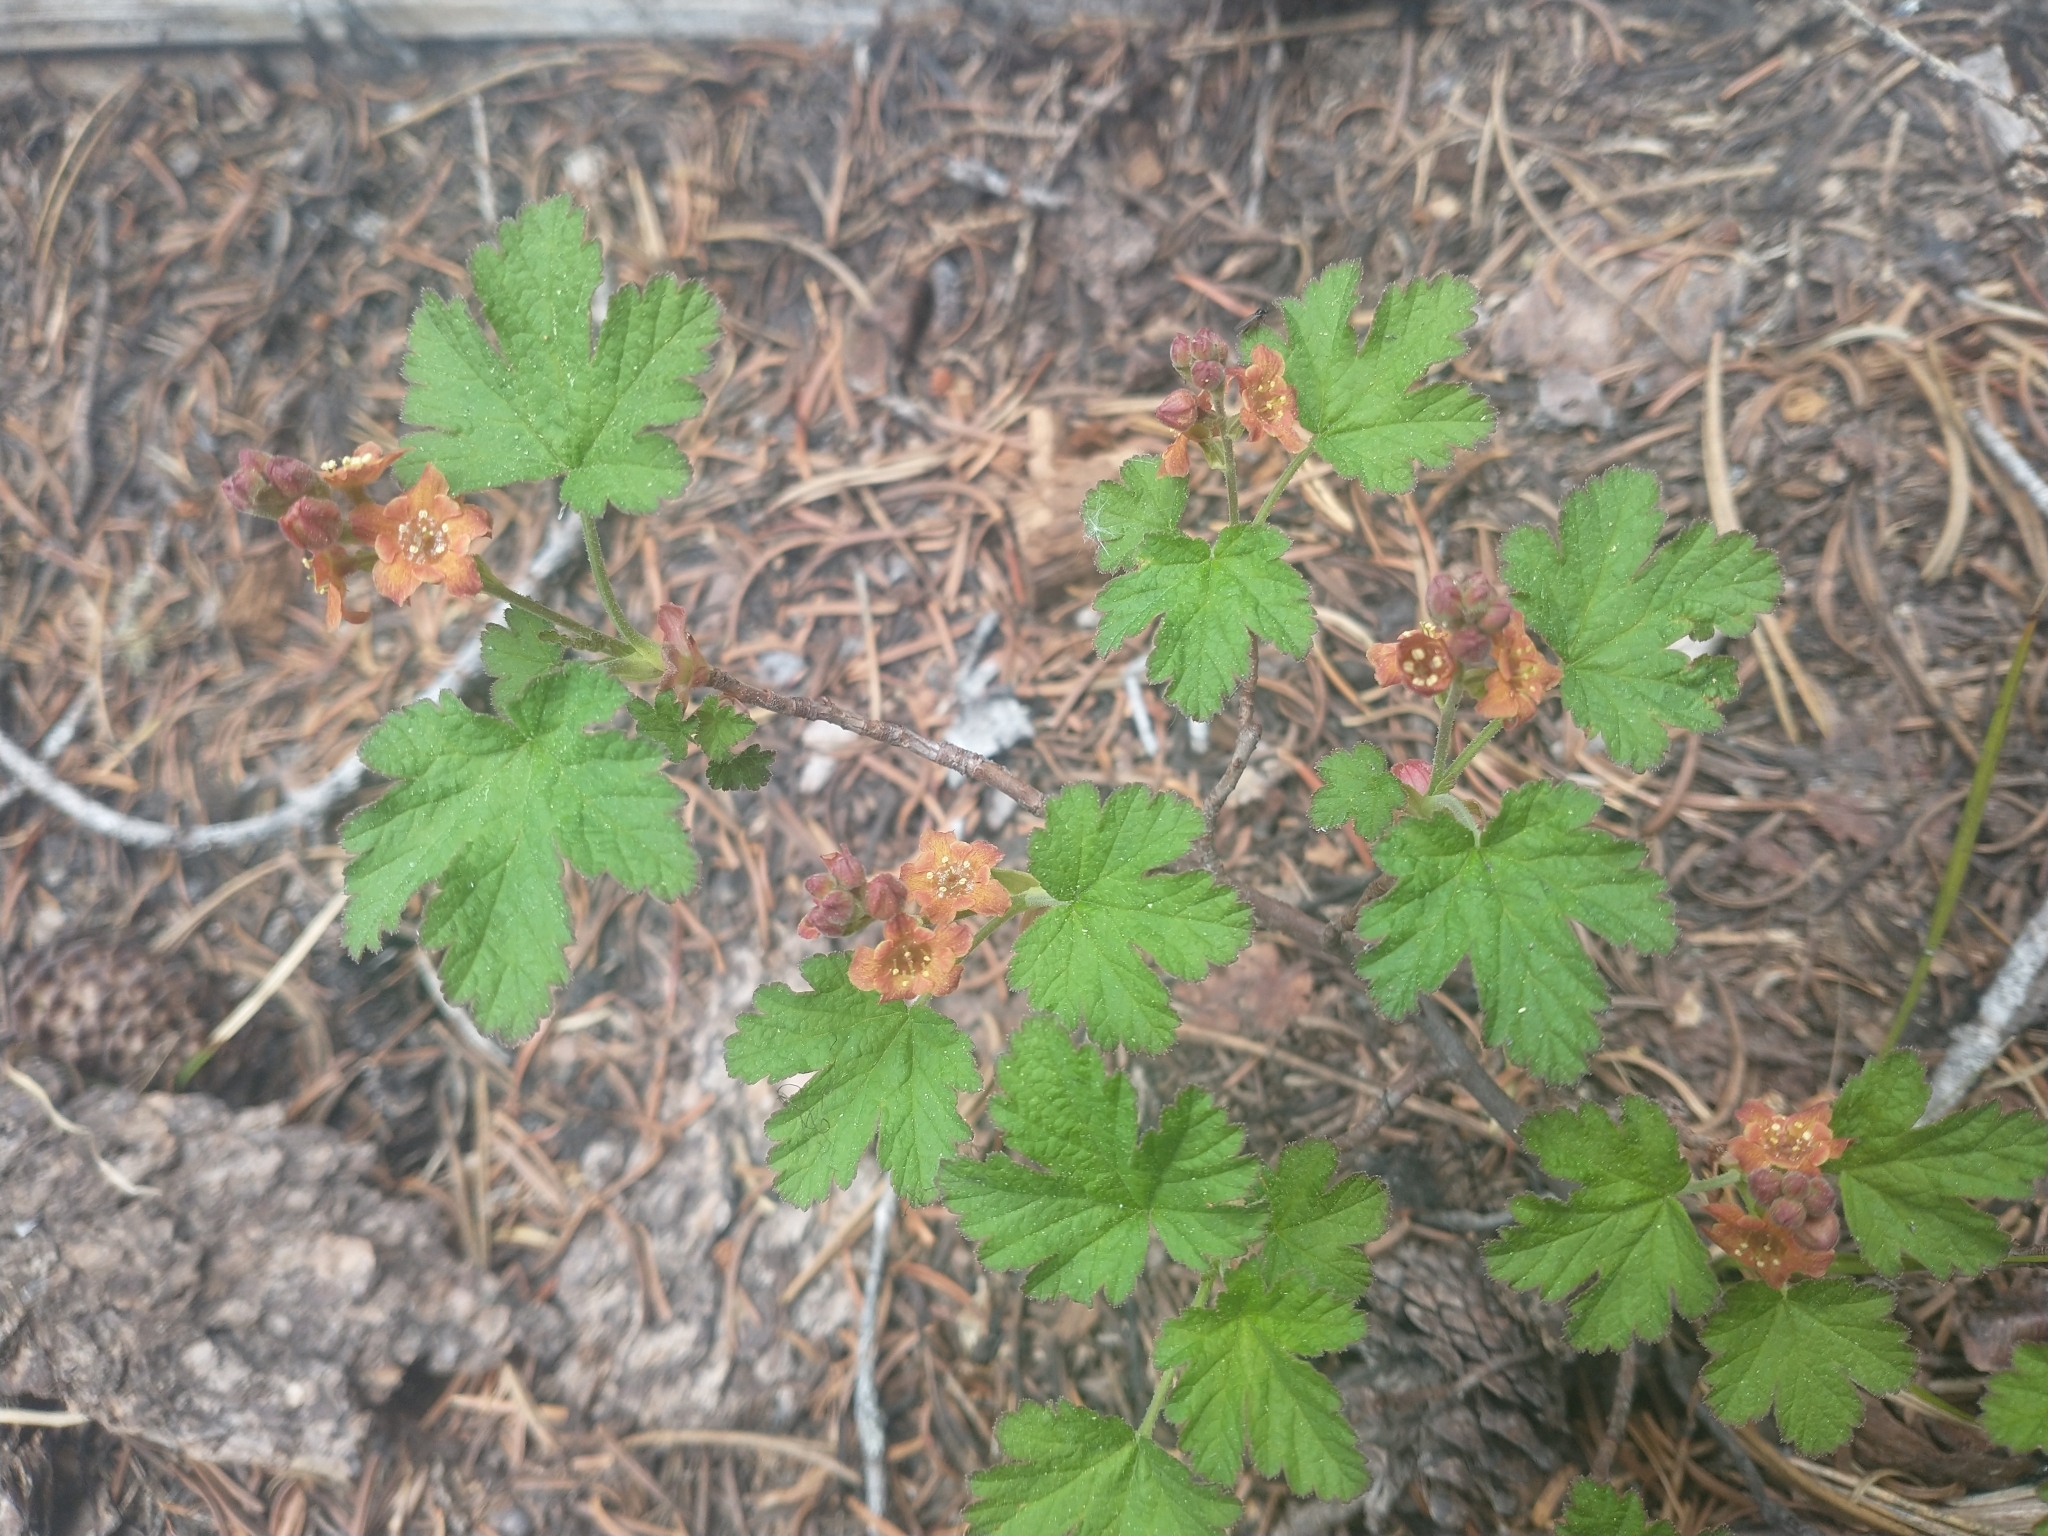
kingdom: Plantae
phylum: Tracheophyta
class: Magnoliopsida
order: Saxifragales
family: Grossulariaceae
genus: Ribes
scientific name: Ribes erythrocarpum
